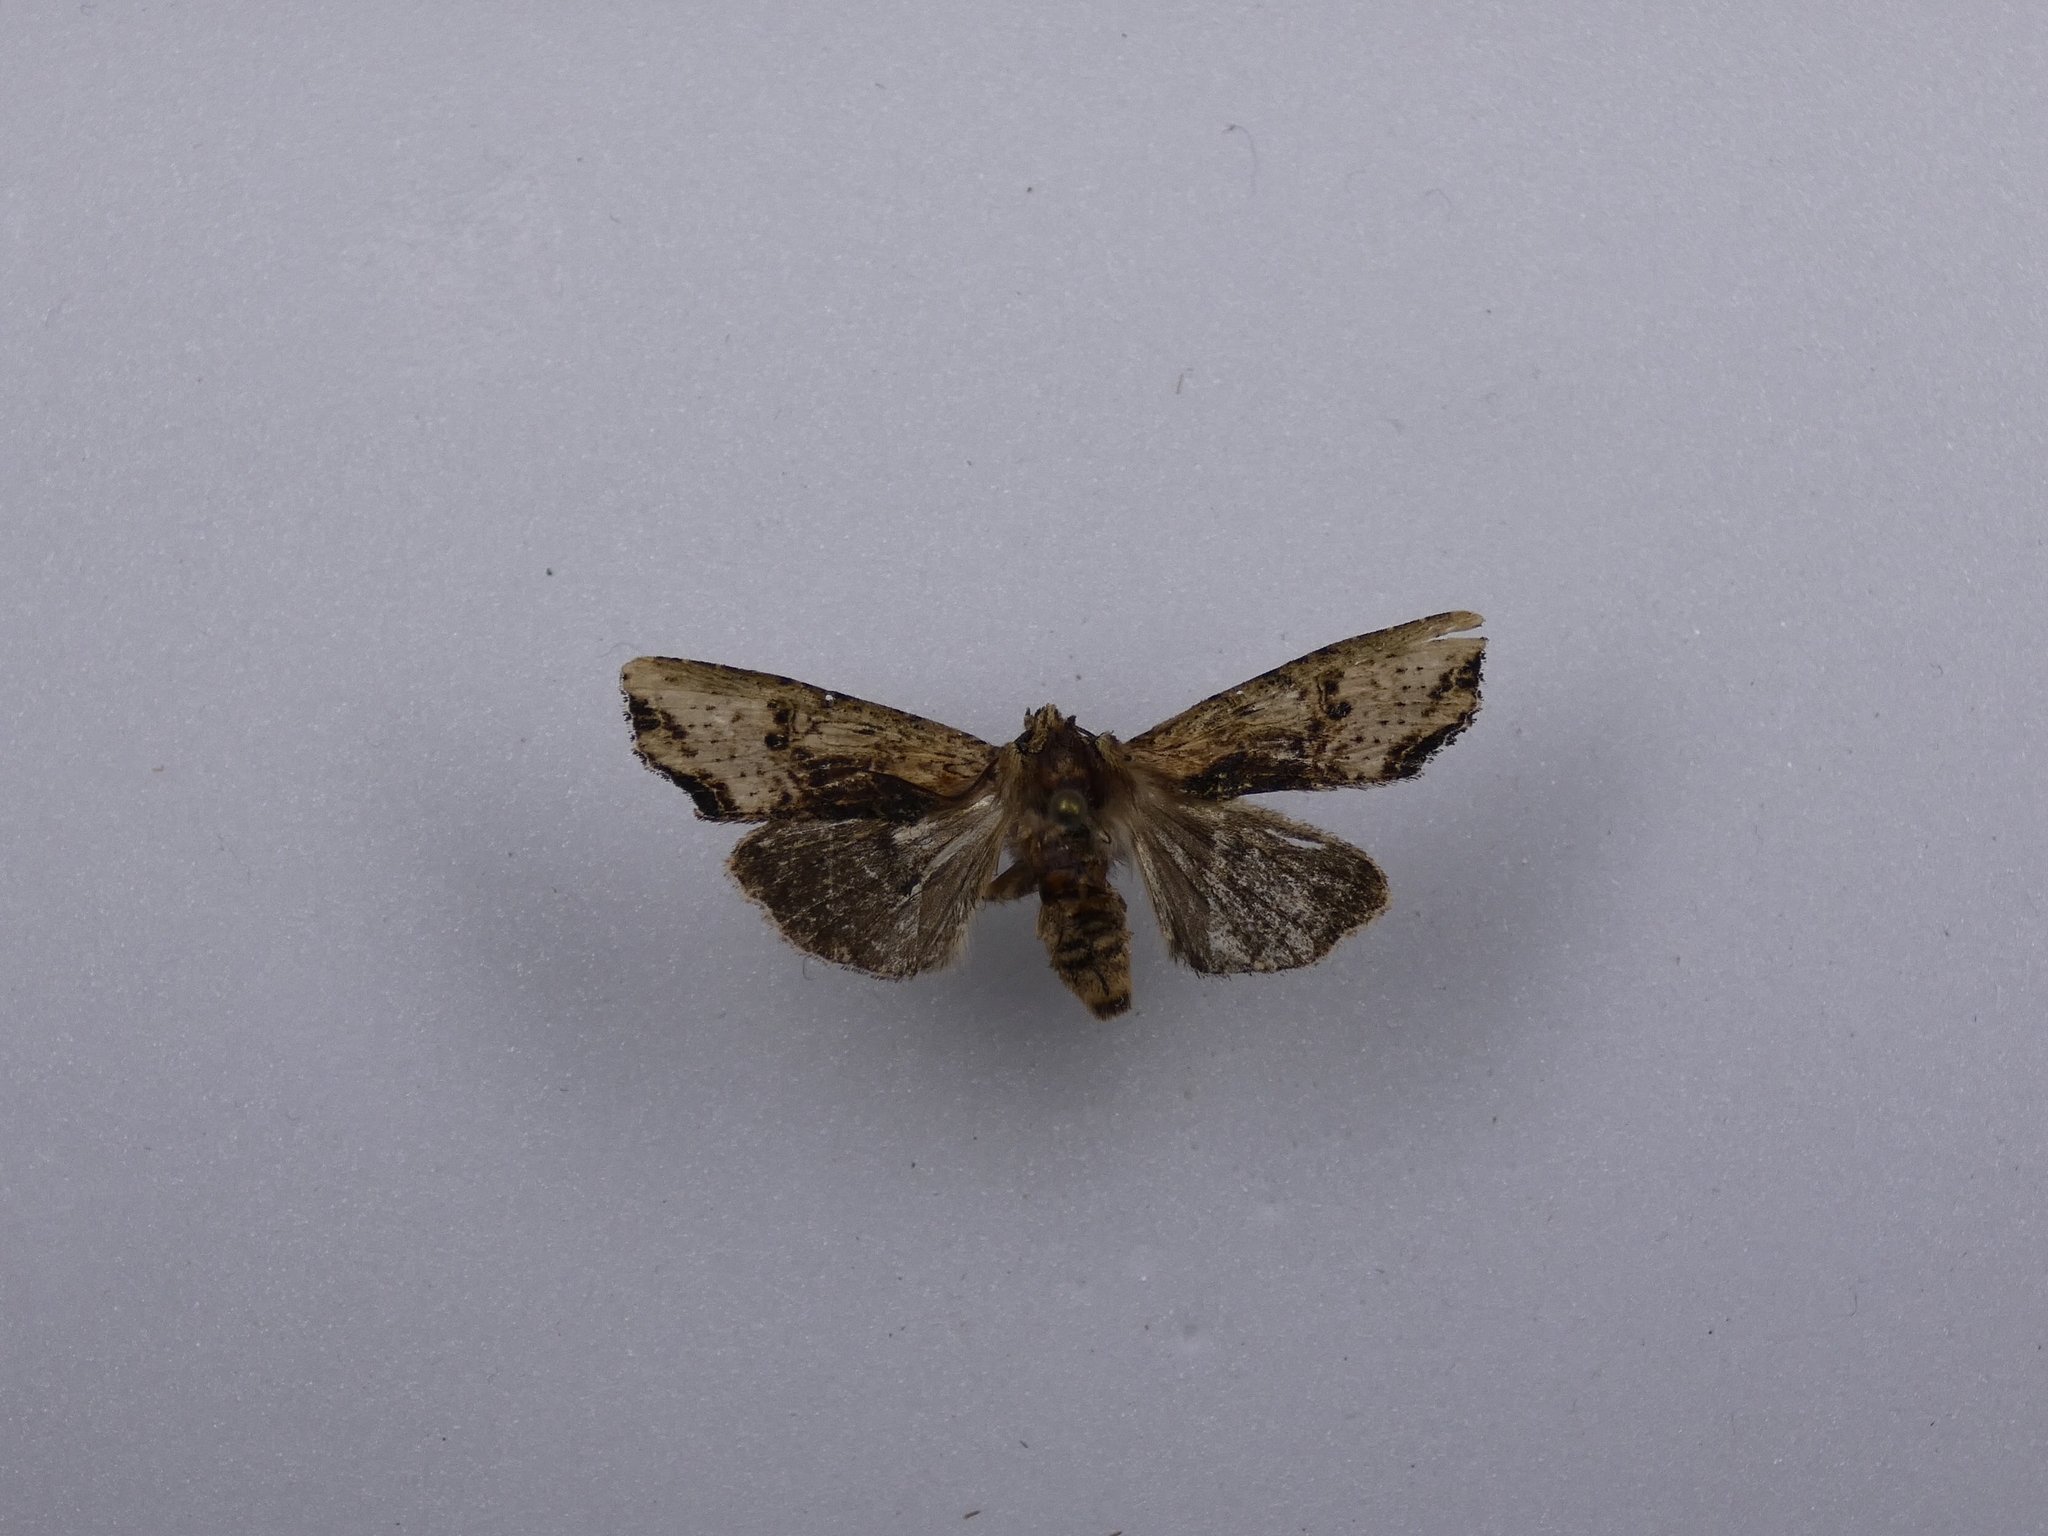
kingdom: Animalia
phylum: Arthropoda
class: Insecta
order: Lepidoptera
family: Noctuidae
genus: Meterana
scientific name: Meterana coeleno
